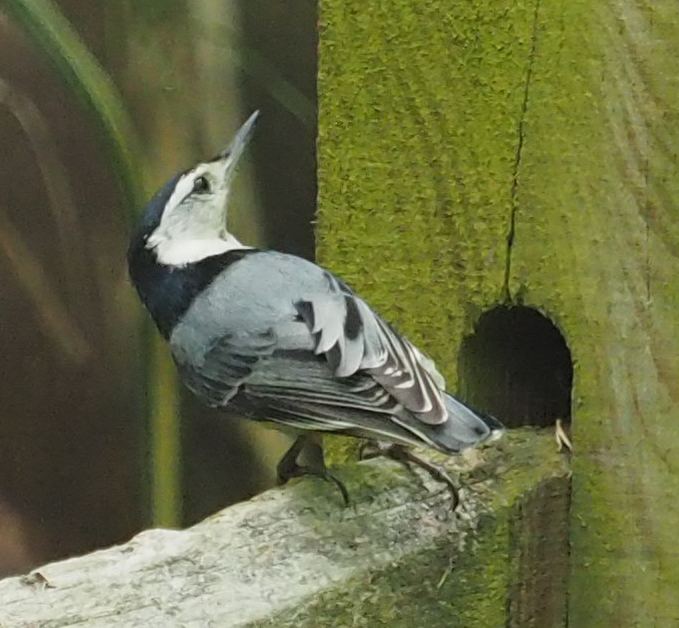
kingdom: Animalia
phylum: Chordata
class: Aves
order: Passeriformes
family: Sittidae
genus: Sitta
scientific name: Sitta carolinensis
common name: White-breasted nuthatch
